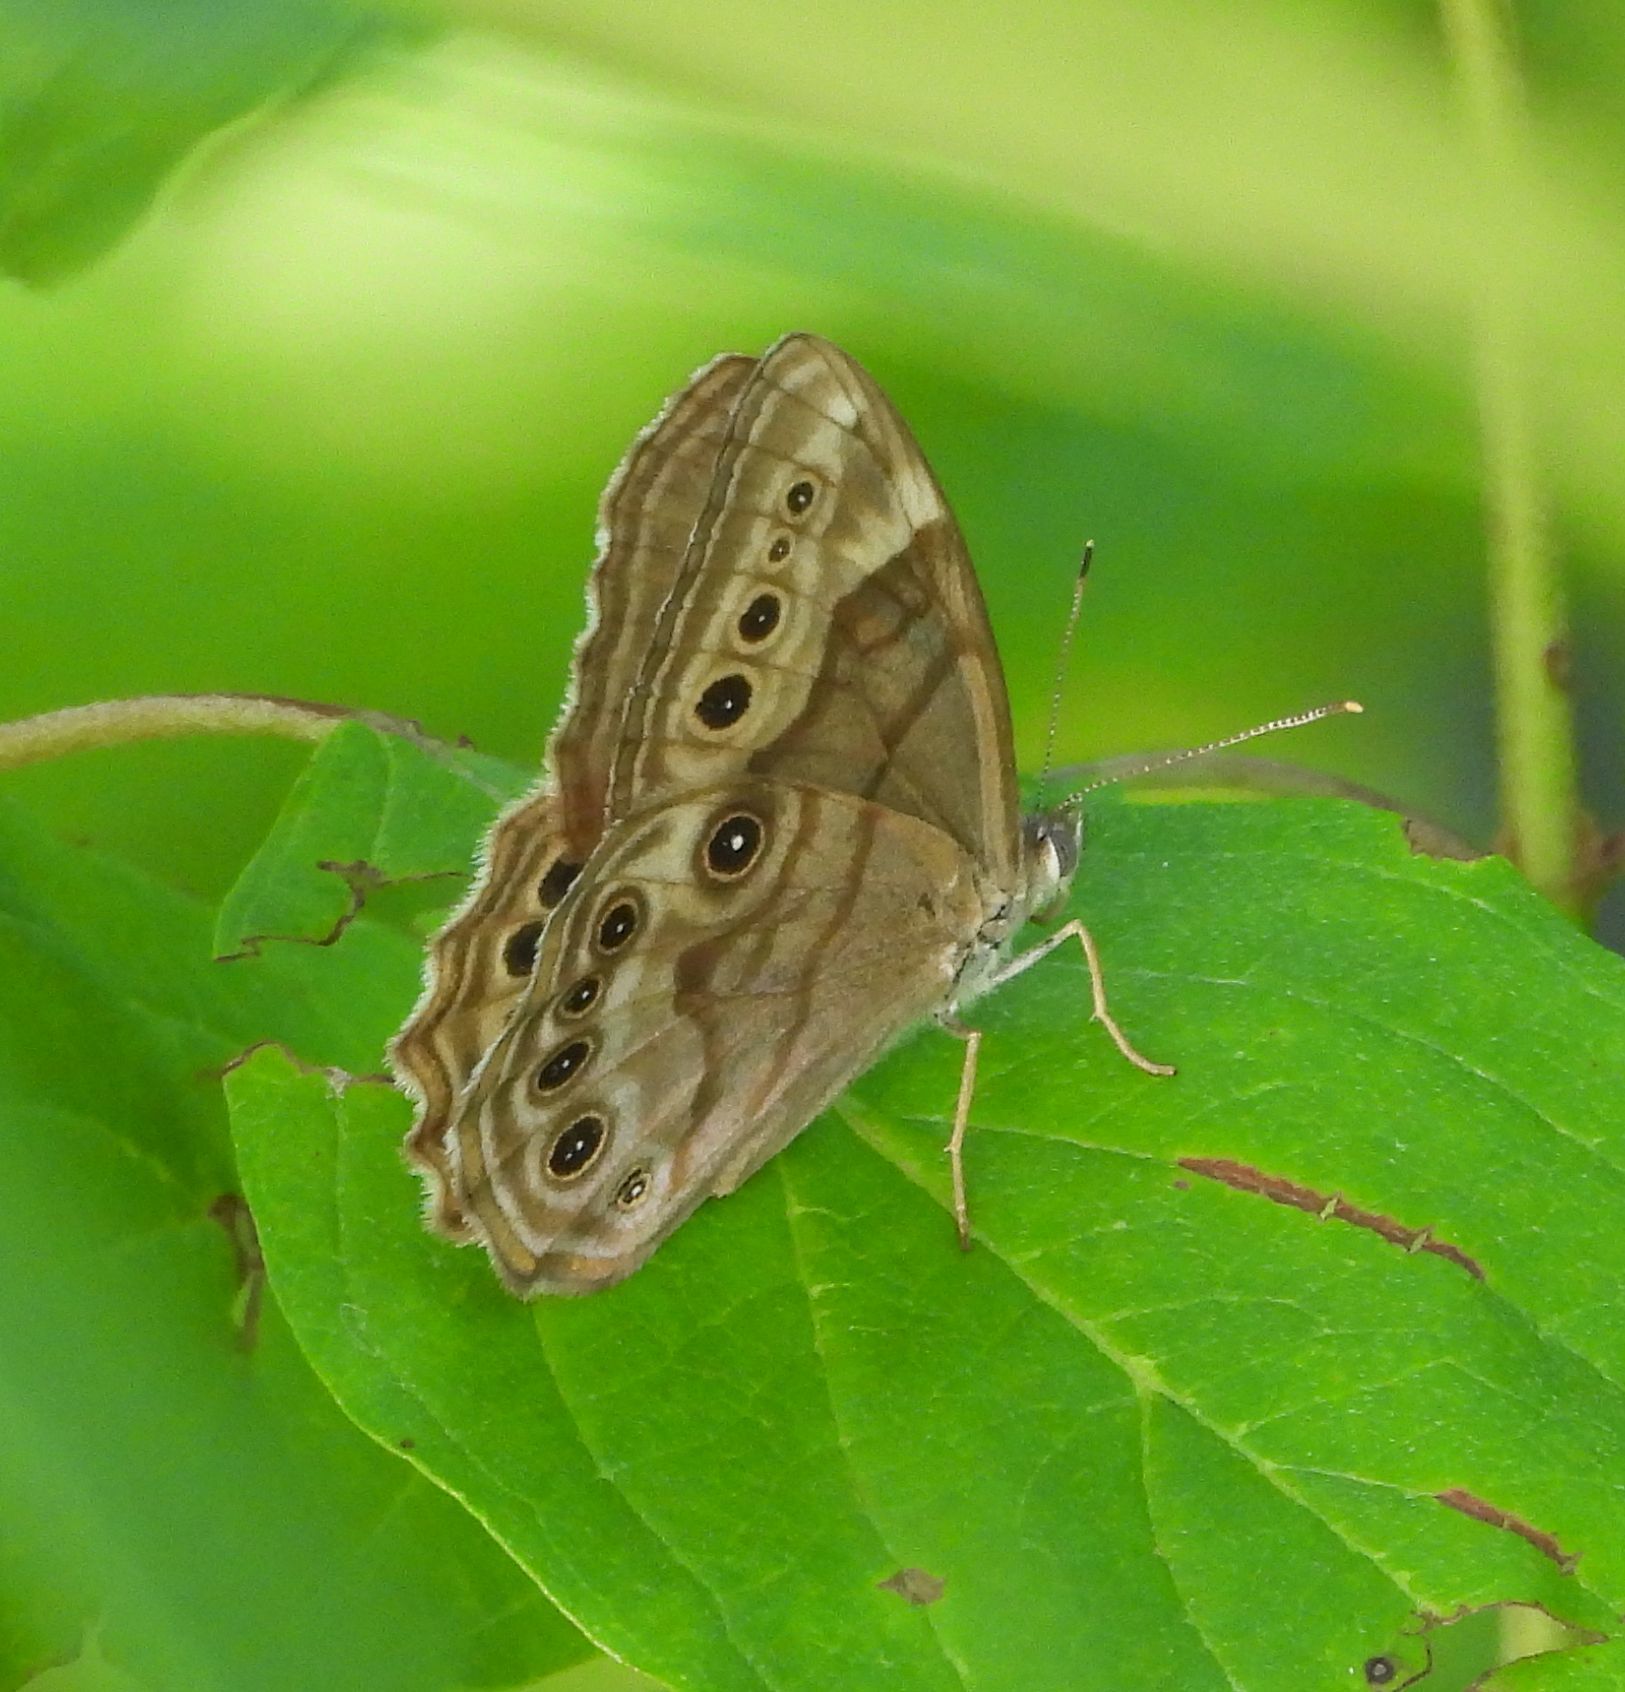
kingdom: Animalia
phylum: Arthropoda
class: Insecta
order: Lepidoptera
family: Nymphalidae
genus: Lethe
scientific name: Lethe anthedon
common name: Northern pearly-eye
